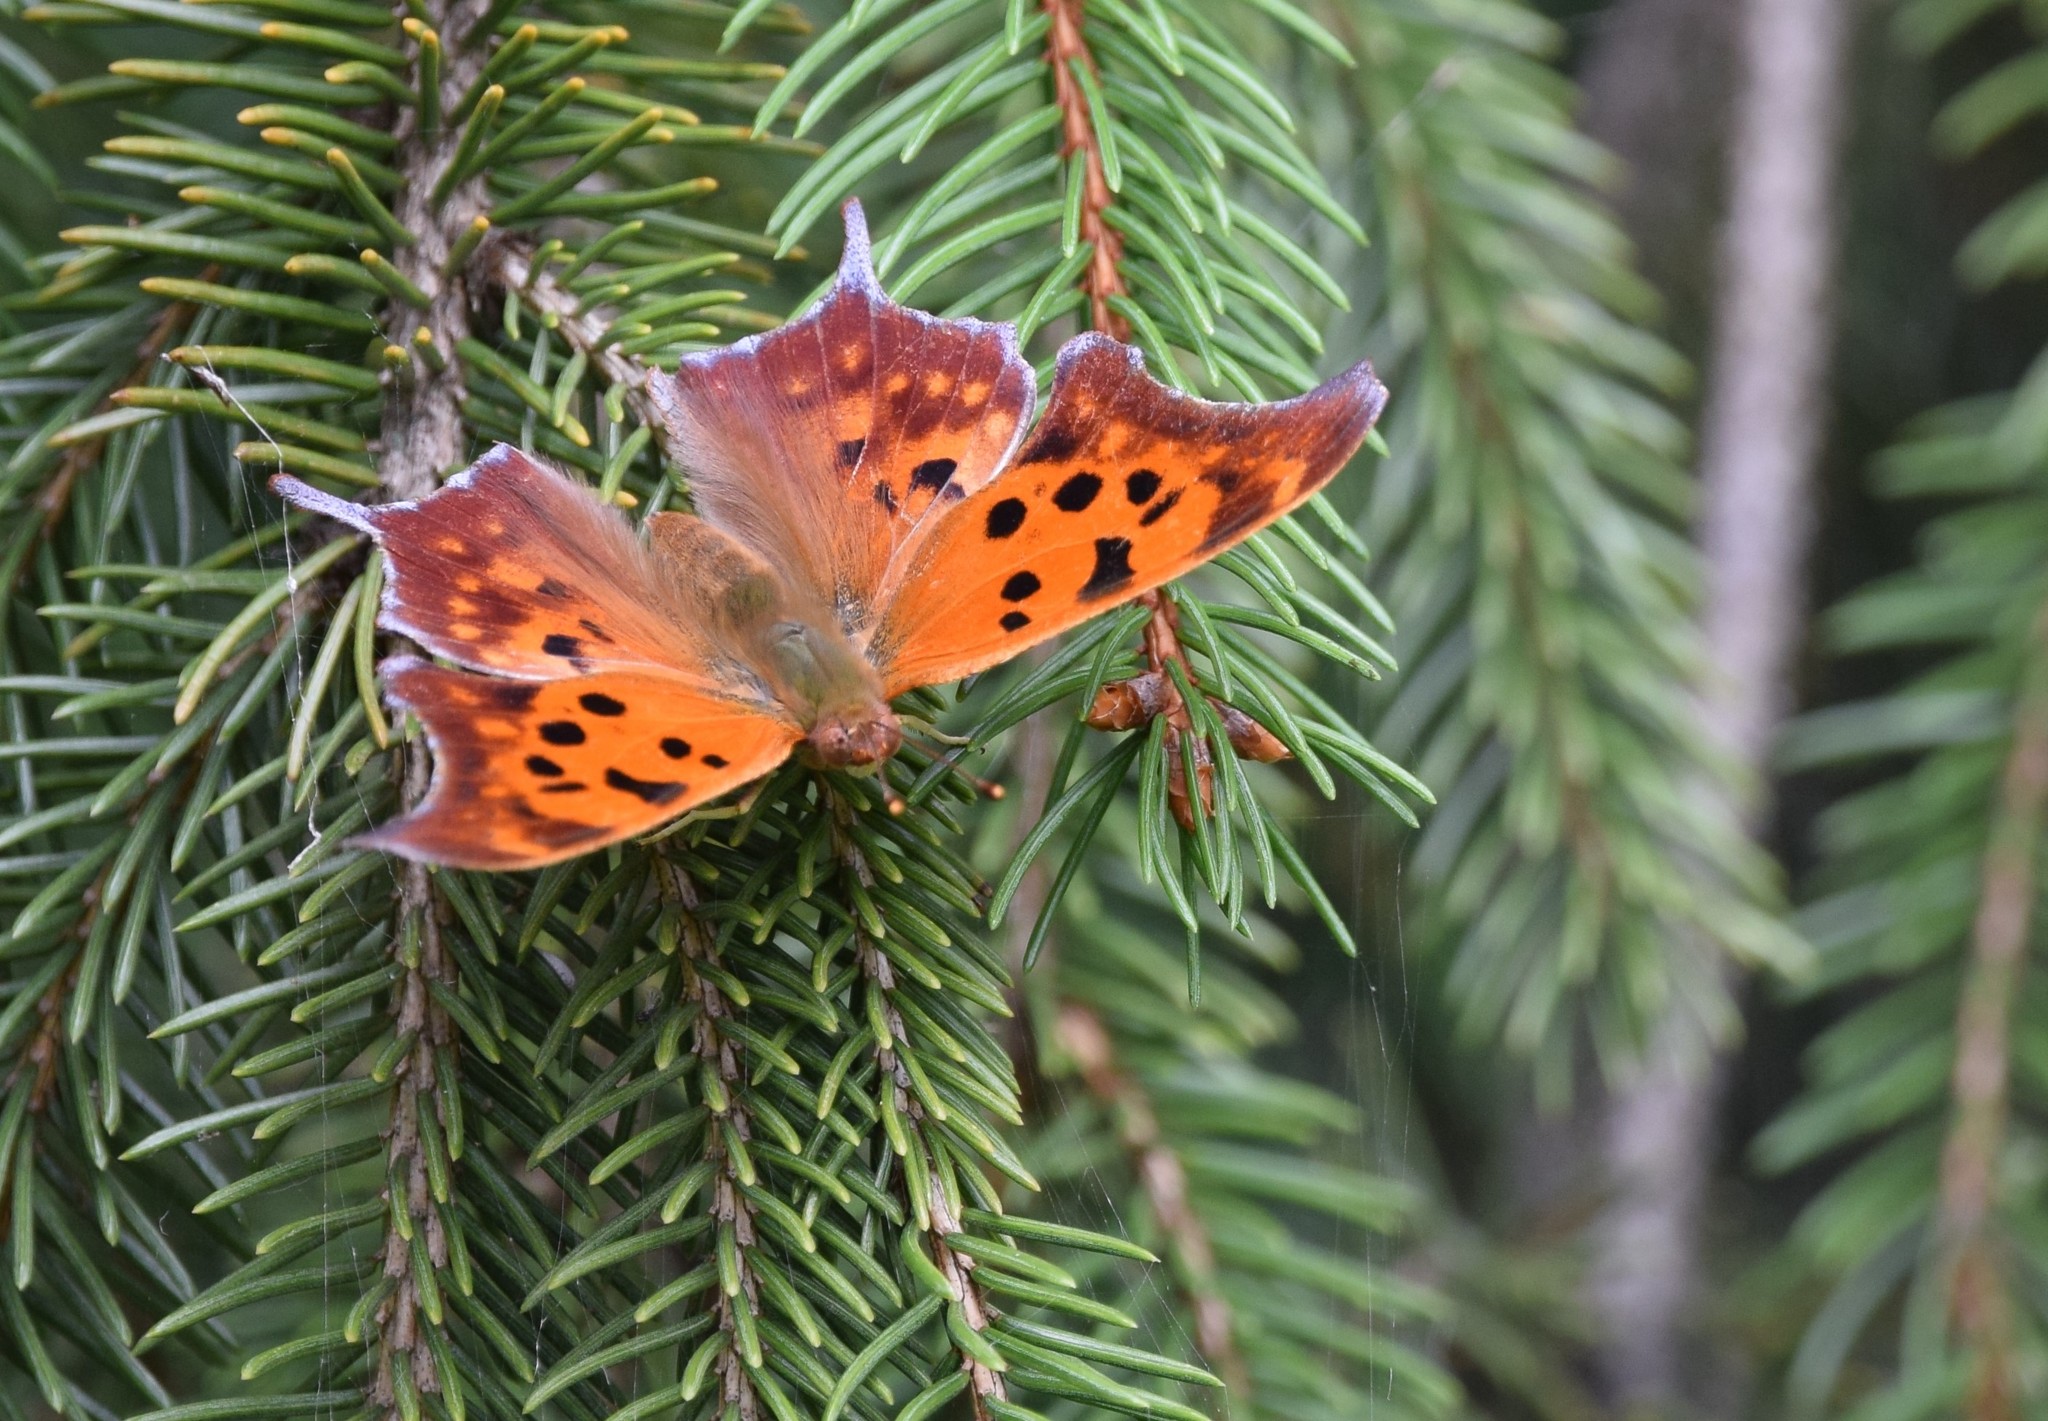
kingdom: Animalia
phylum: Arthropoda
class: Insecta
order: Lepidoptera
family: Nymphalidae
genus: Polygonia
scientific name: Polygonia interrogationis
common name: Question mark
